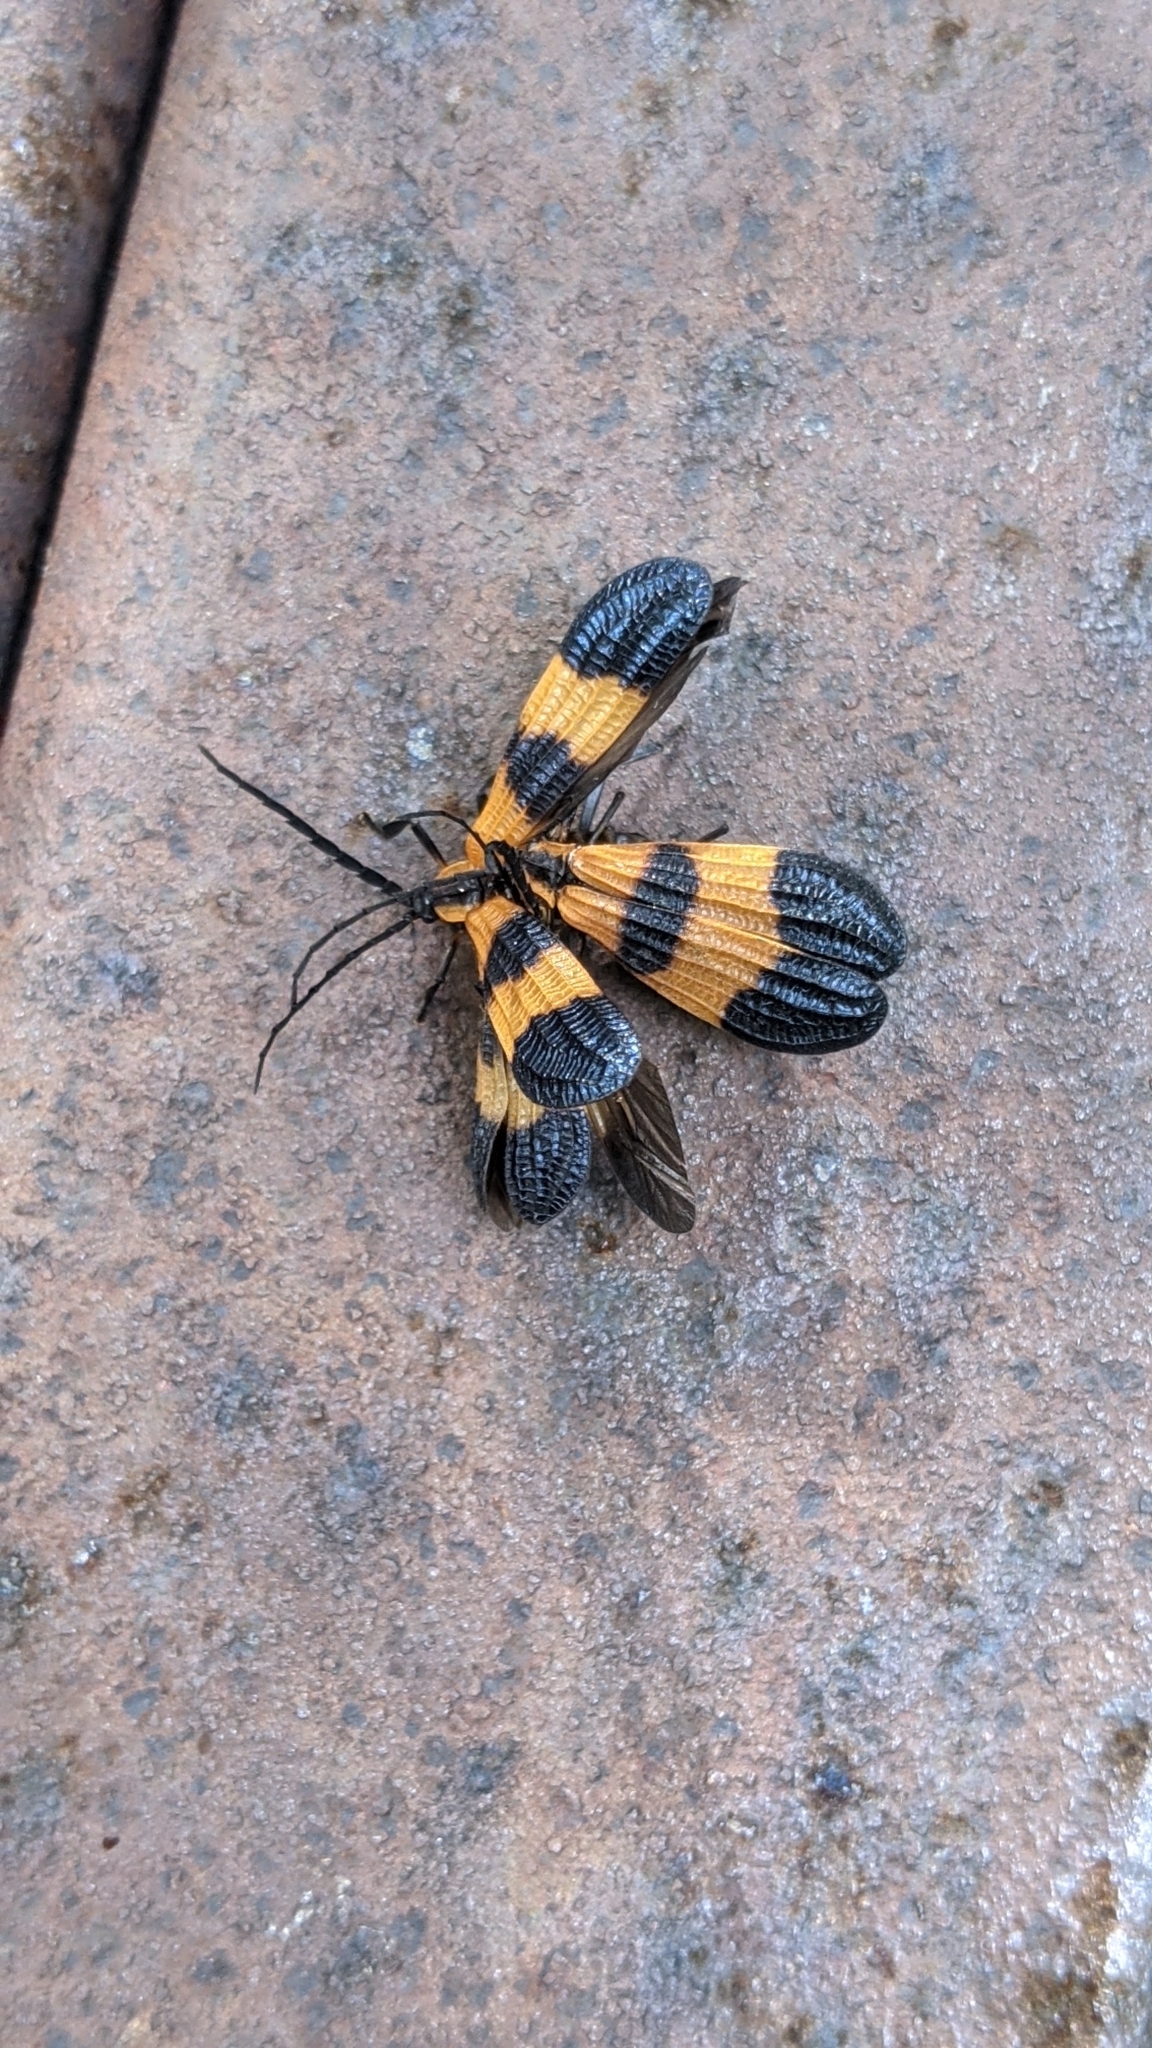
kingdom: Animalia
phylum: Arthropoda
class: Insecta
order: Coleoptera
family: Lycidae
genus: Calopteron
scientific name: Calopteron terminale
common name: End band net-winged beetle
